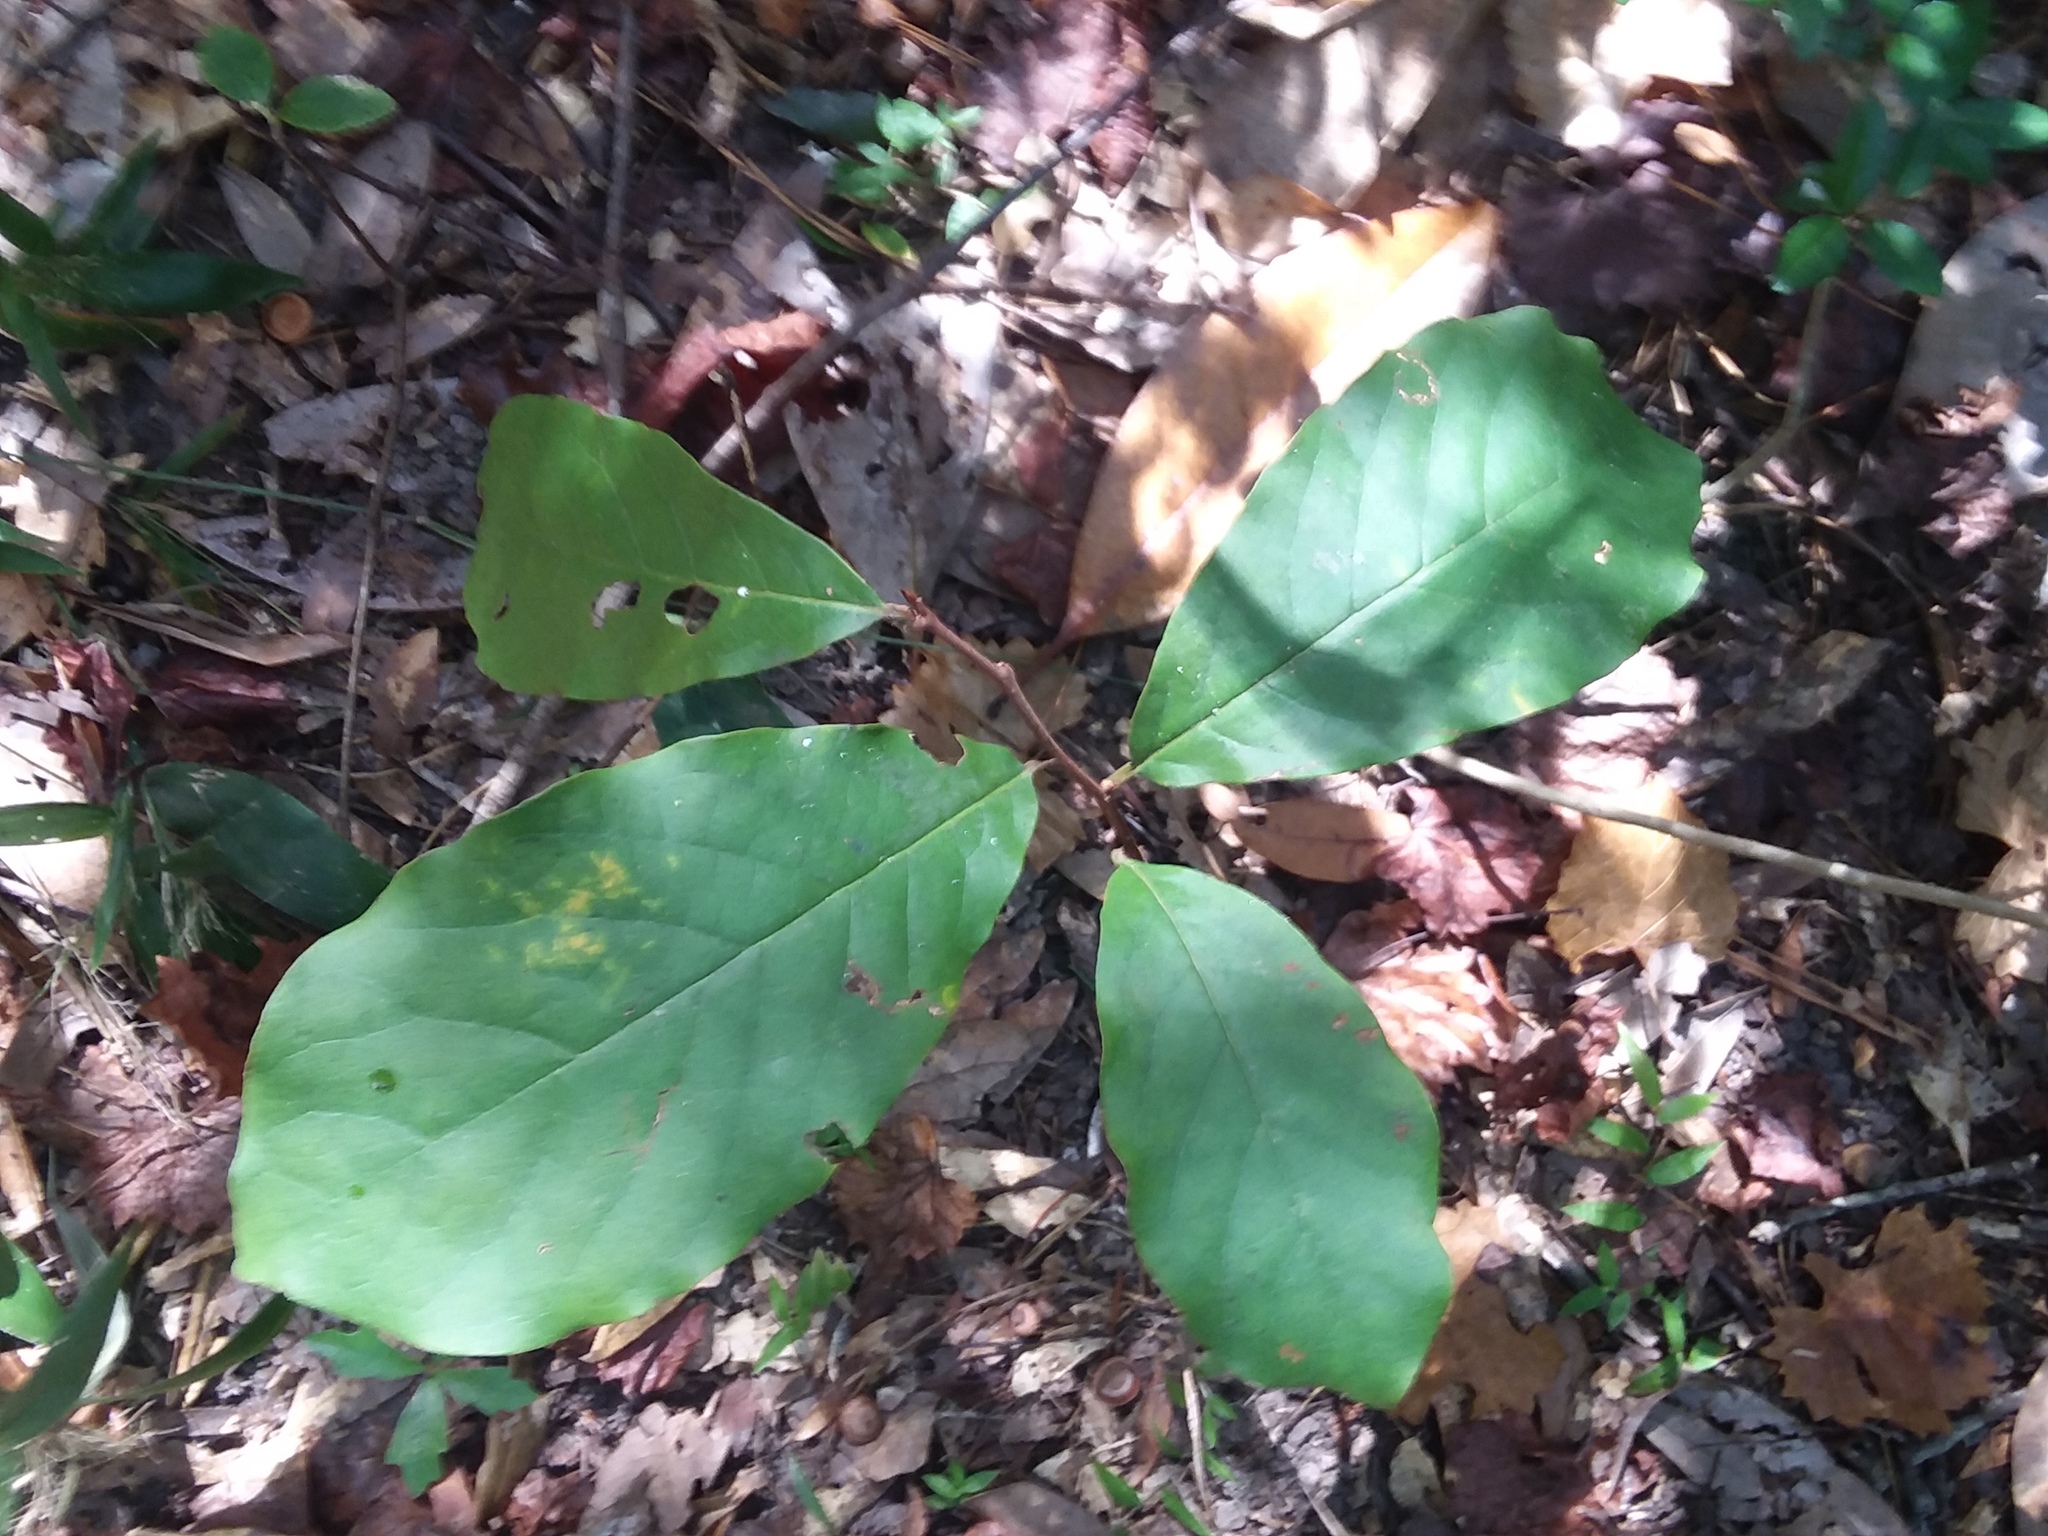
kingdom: Plantae
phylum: Tracheophyta
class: Magnoliopsida
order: Magnoliales
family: Annonaceae
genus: Asimina
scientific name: Asimina parviflora
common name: Dwarf pawpaw
